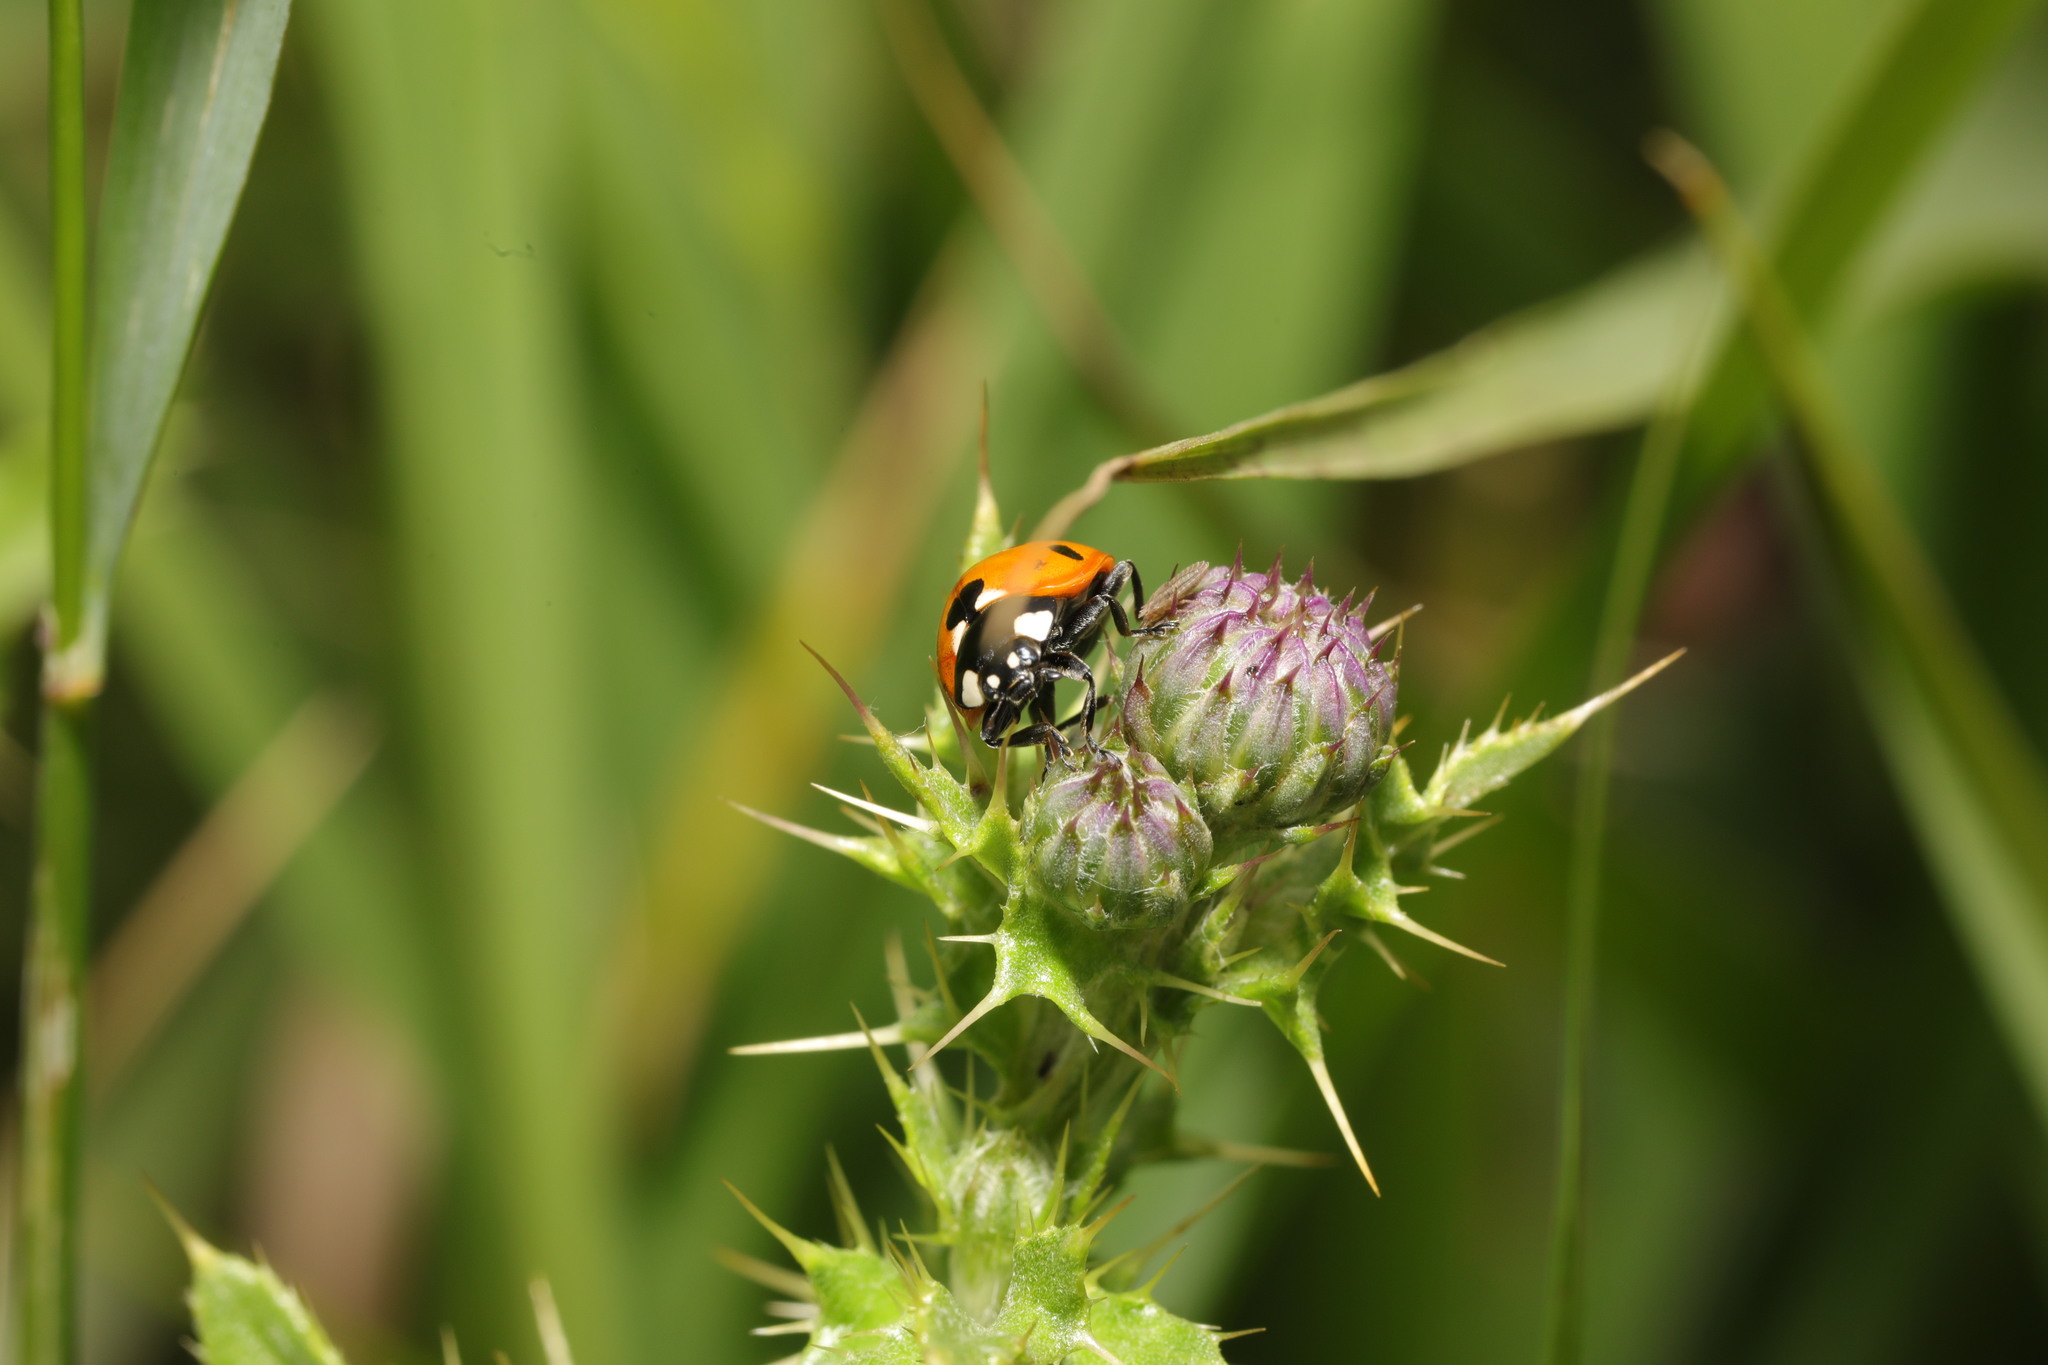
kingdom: Animalia
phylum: Arthropoda
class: Insecta
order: Coleoptera
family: Coccinellidae
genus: Coccinella
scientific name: Coccinella septempunctata
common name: Sevenspotted lady beetle
